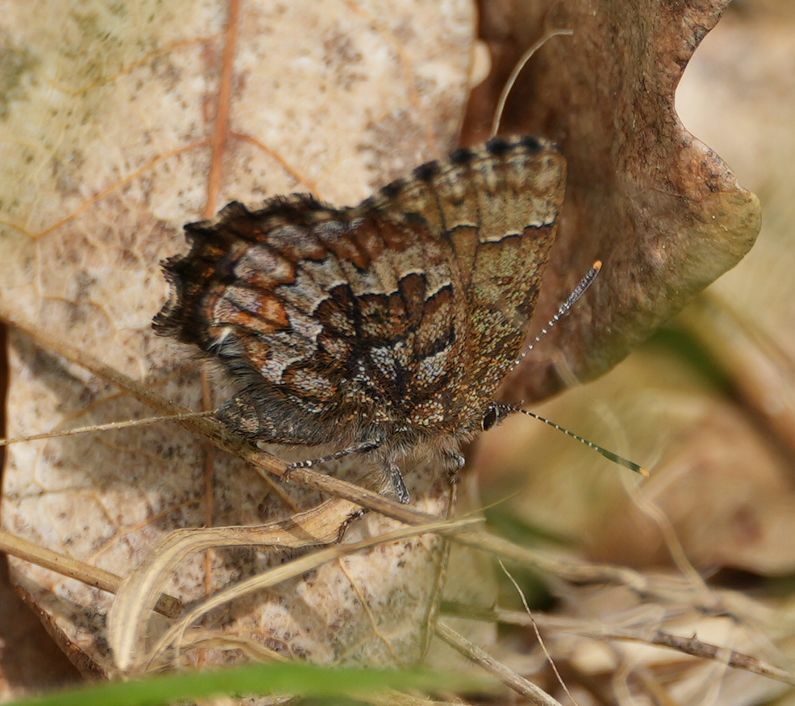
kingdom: Animalia
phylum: Arthropoda
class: Insecta
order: Lepidoptera
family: Lycaenidae
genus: Incisalia
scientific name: Incisalia niphon
